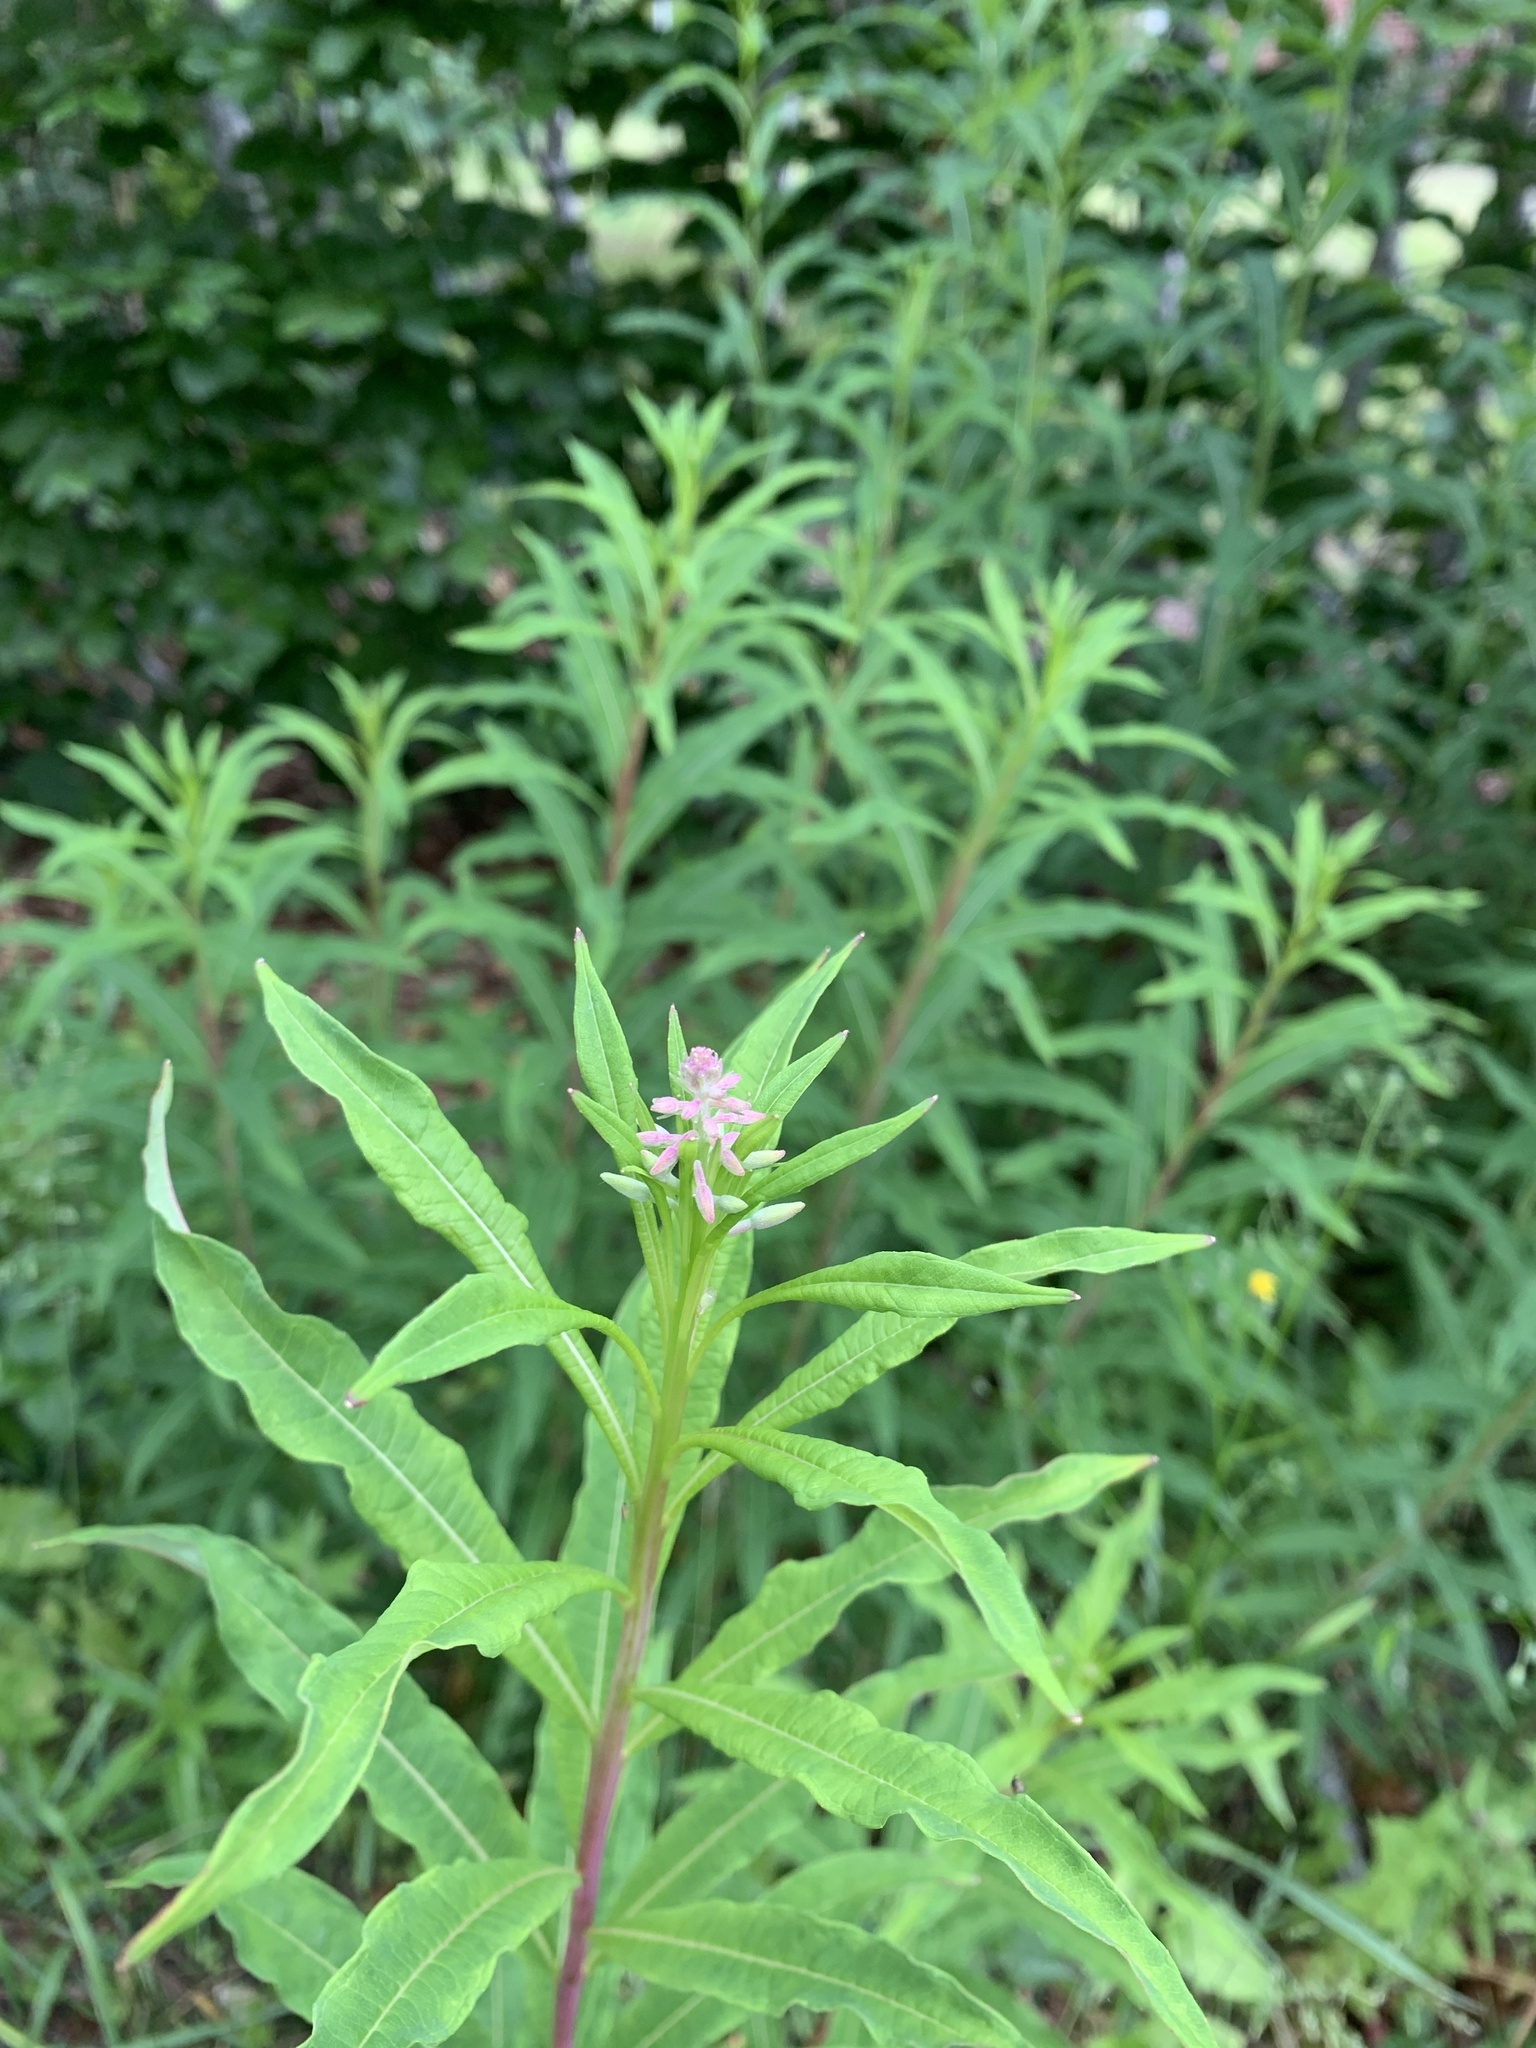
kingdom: Plantae
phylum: Tracheophyta
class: Magnoliopsida
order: Myrtales
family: Onagraceae
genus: Chamaenerion
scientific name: Chamaenerion angustifolium
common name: Fireweed
